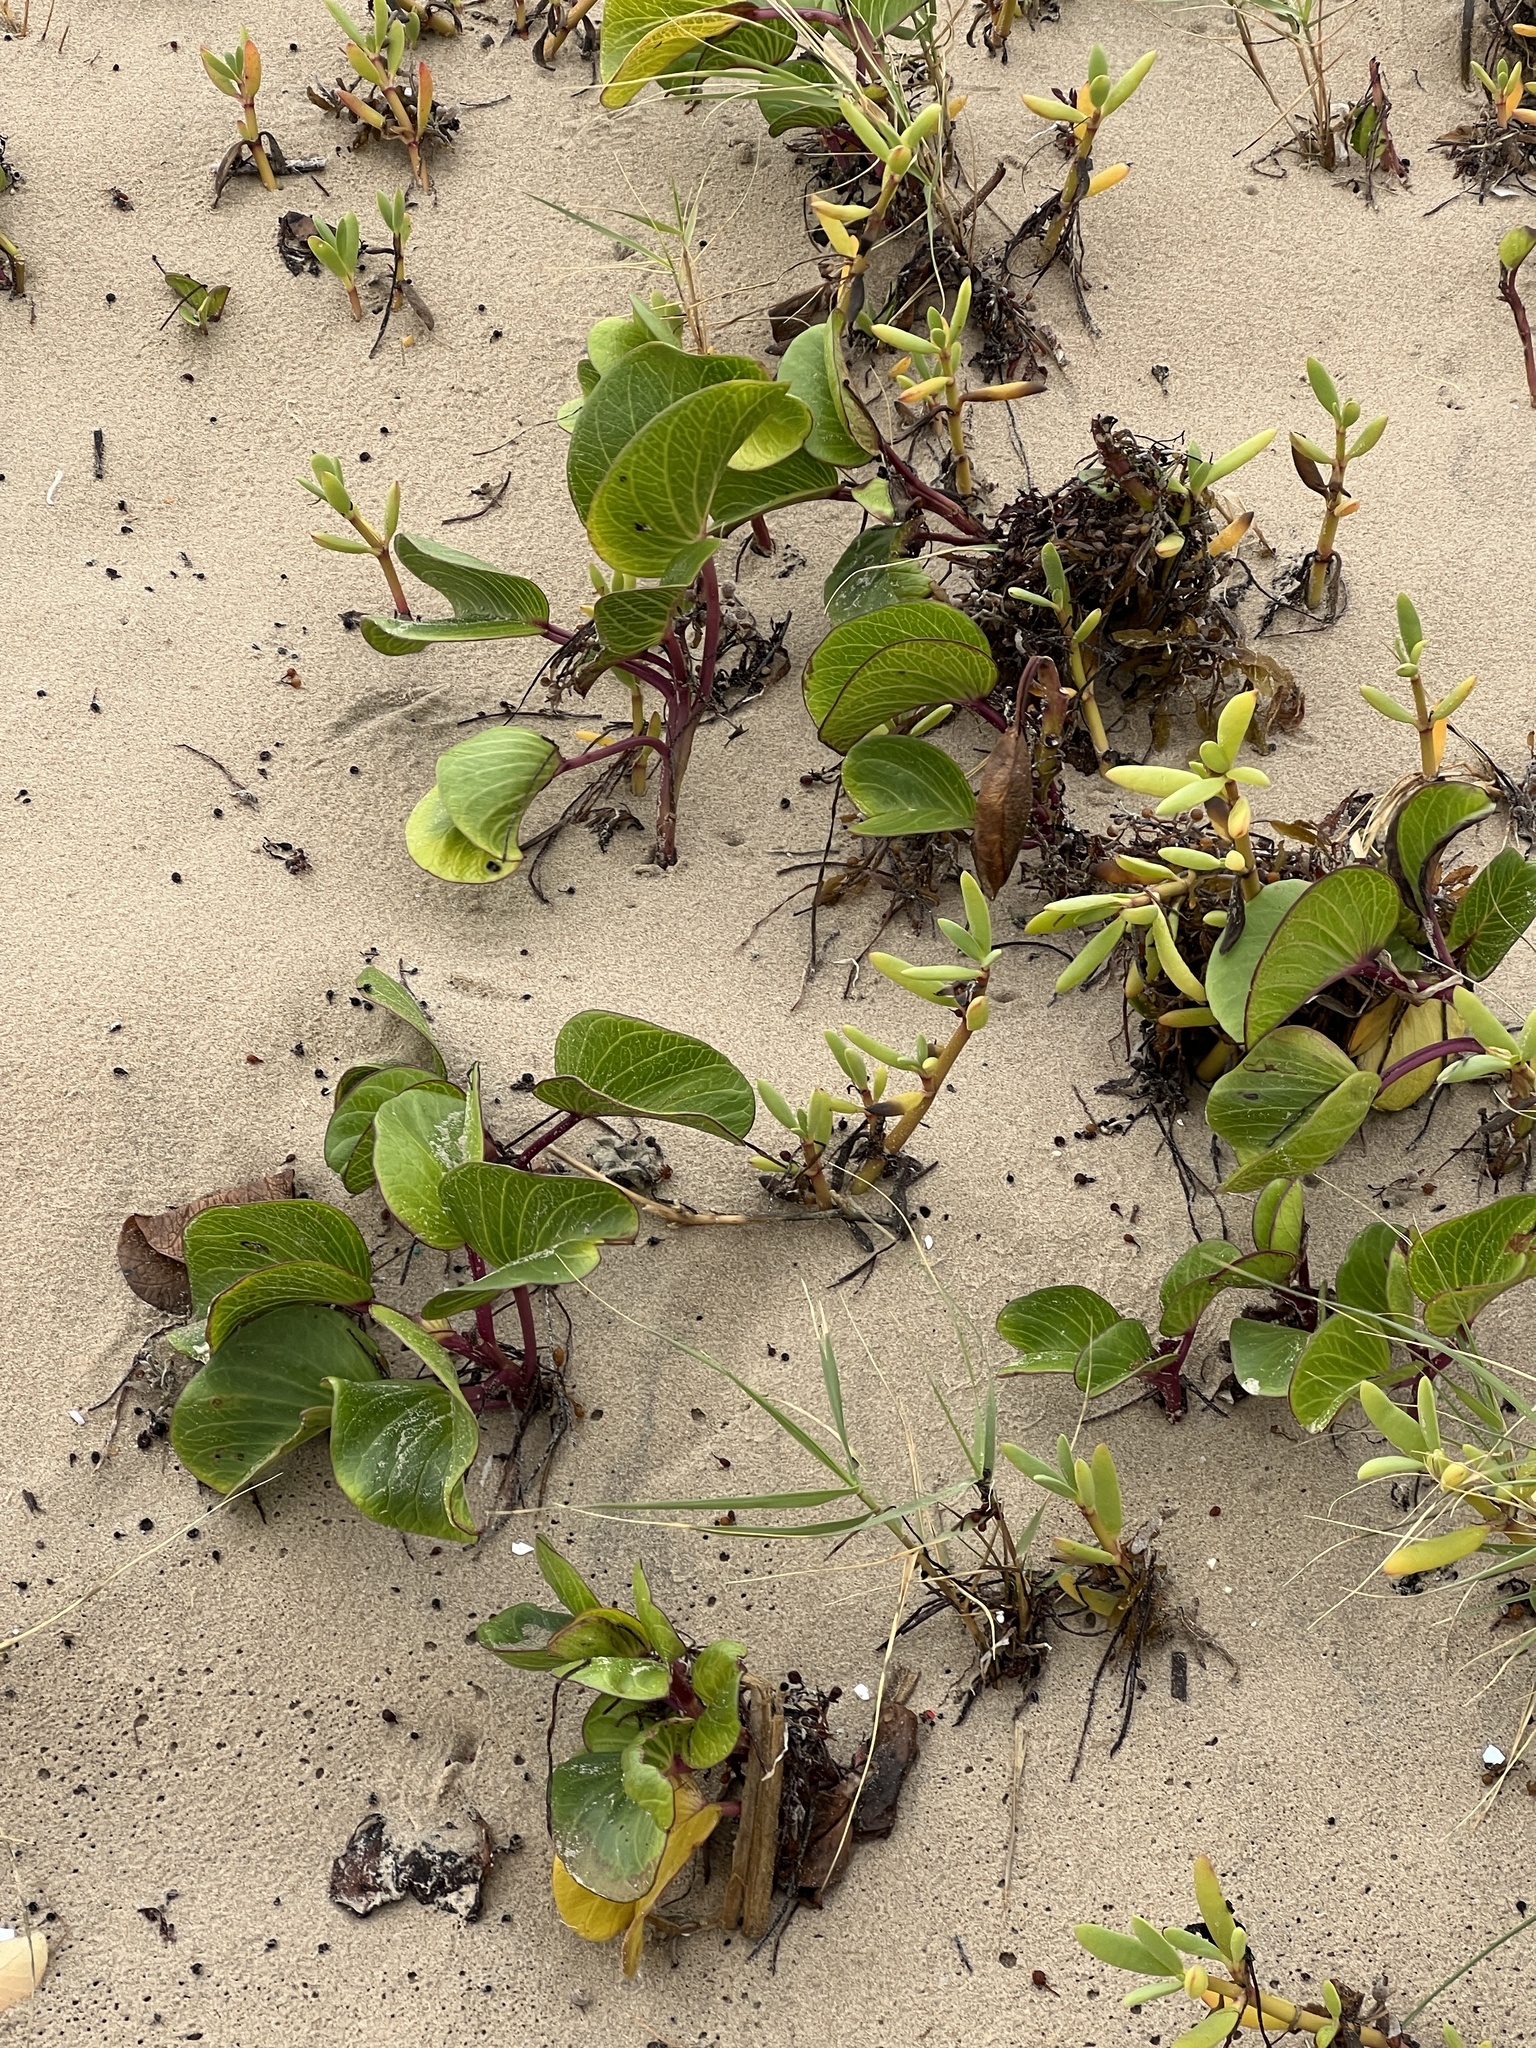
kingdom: Plantae
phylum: Tracheophyta
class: Magnoliopsida
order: Solanales
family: Convolvulaceae
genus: Ipomoea
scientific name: Ipomoea pes-caprae
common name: Beach morning glory
